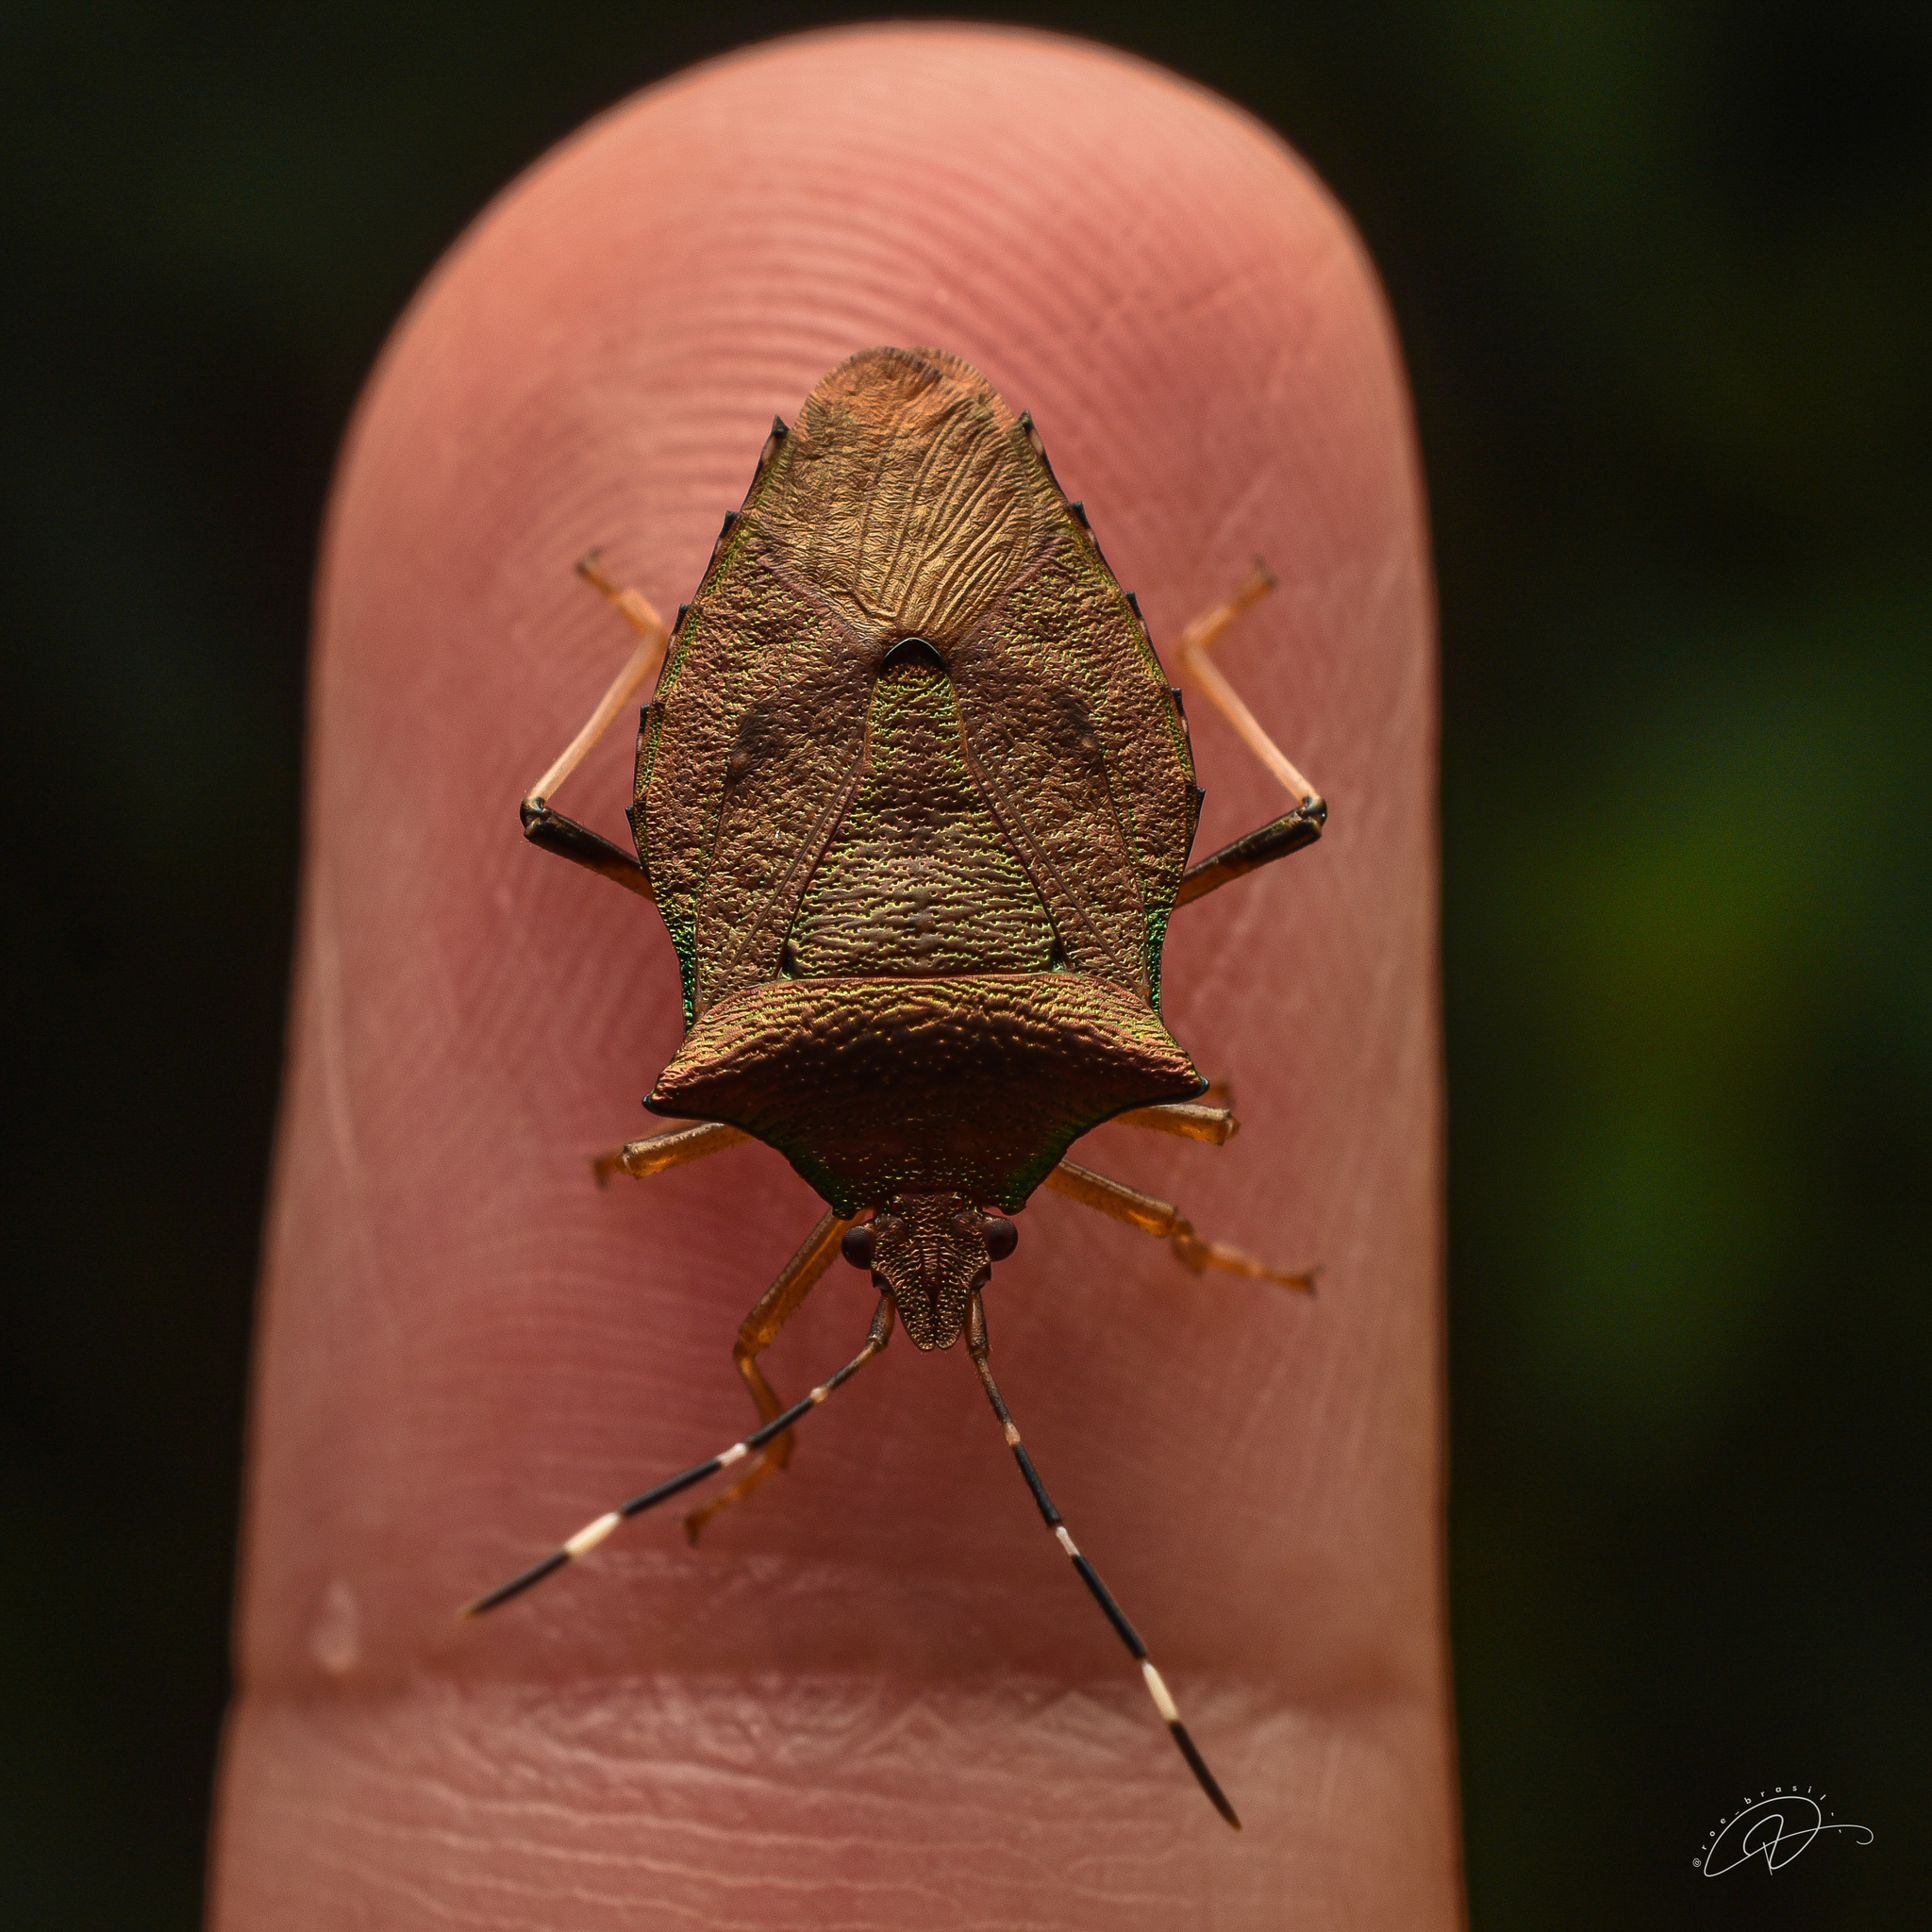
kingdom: Animalia
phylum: Arthropoda
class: Insecta
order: Hemiptera
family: Pentatomidae
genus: Myota
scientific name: Myota aerea
